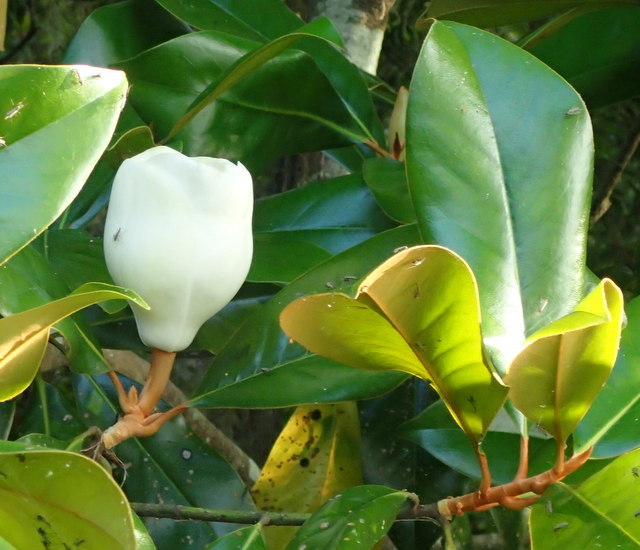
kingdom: Plantae
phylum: Tracheophyta
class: Magnoliopsida
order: Magnoliales
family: Magnoliaceae
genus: Magnolia
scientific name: Magnolia grandiflora
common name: Southern magnolia
